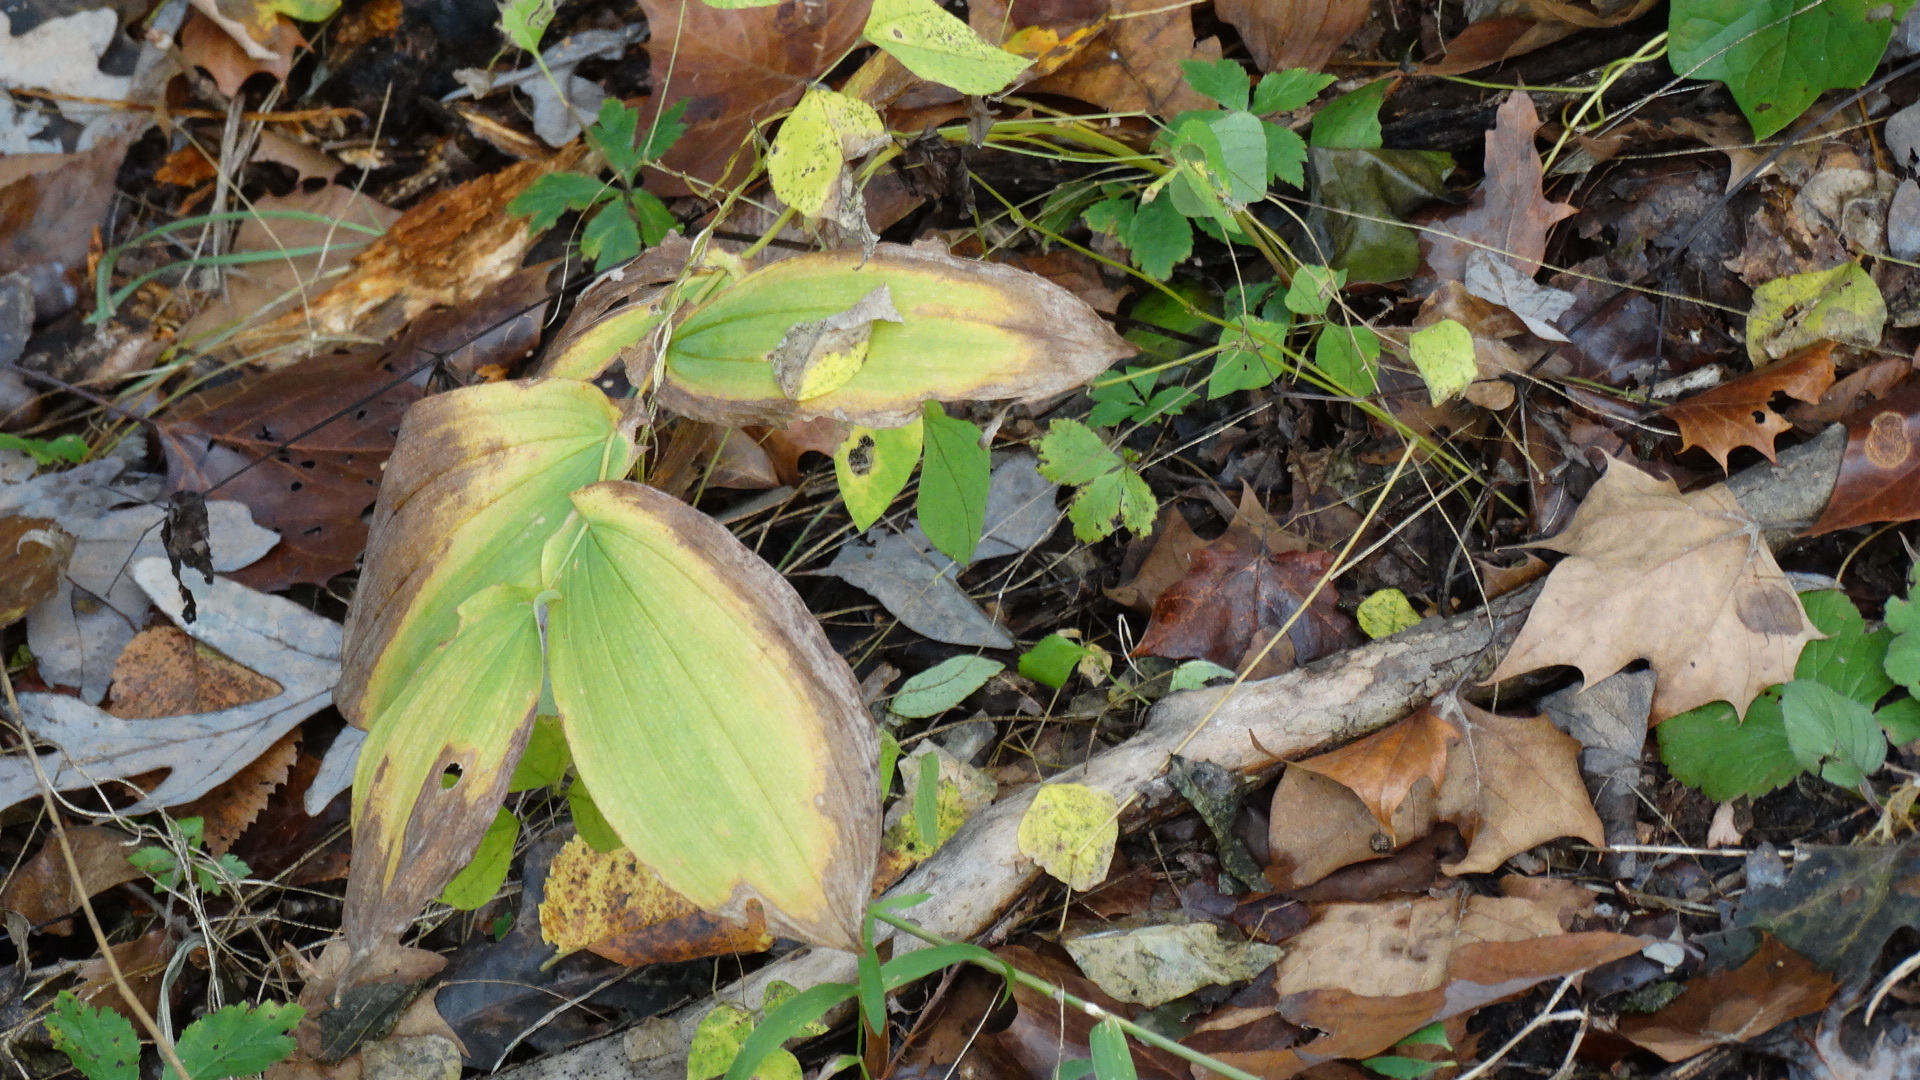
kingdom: Plantae
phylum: Tracheophyta
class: Liliopsida
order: Liliales
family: Colchicaceae
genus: Uvularia
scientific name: Uvularia grandiflora
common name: Bellwort
